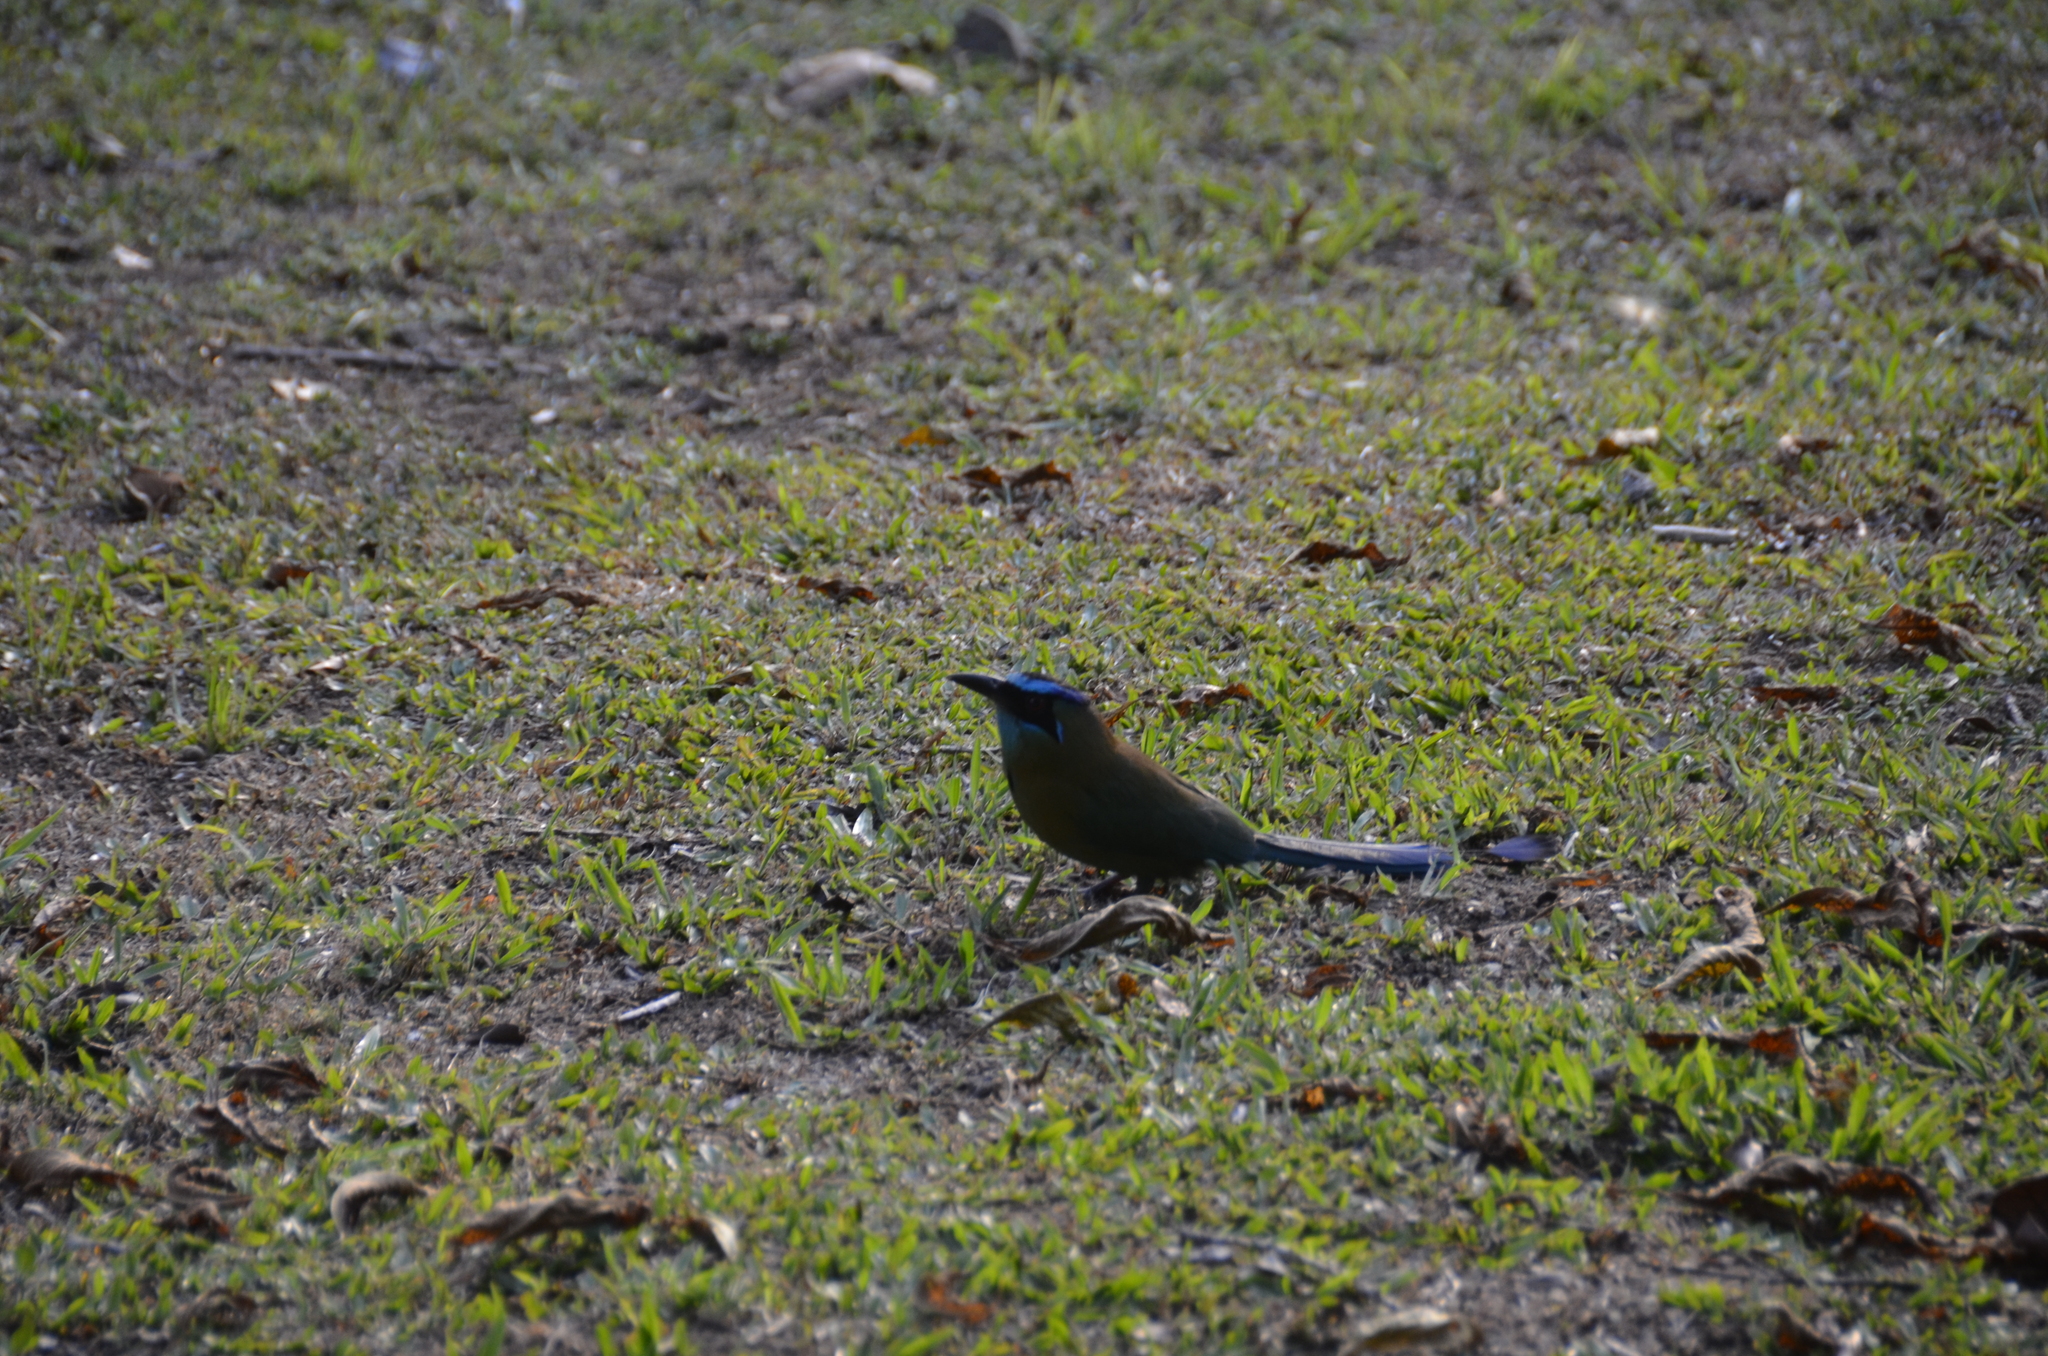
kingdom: Animalia
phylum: Chordata
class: Aves
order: Coraciiformes
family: Momotidae
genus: Momotus
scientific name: Momotus lessonii
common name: Lesson's motmot
